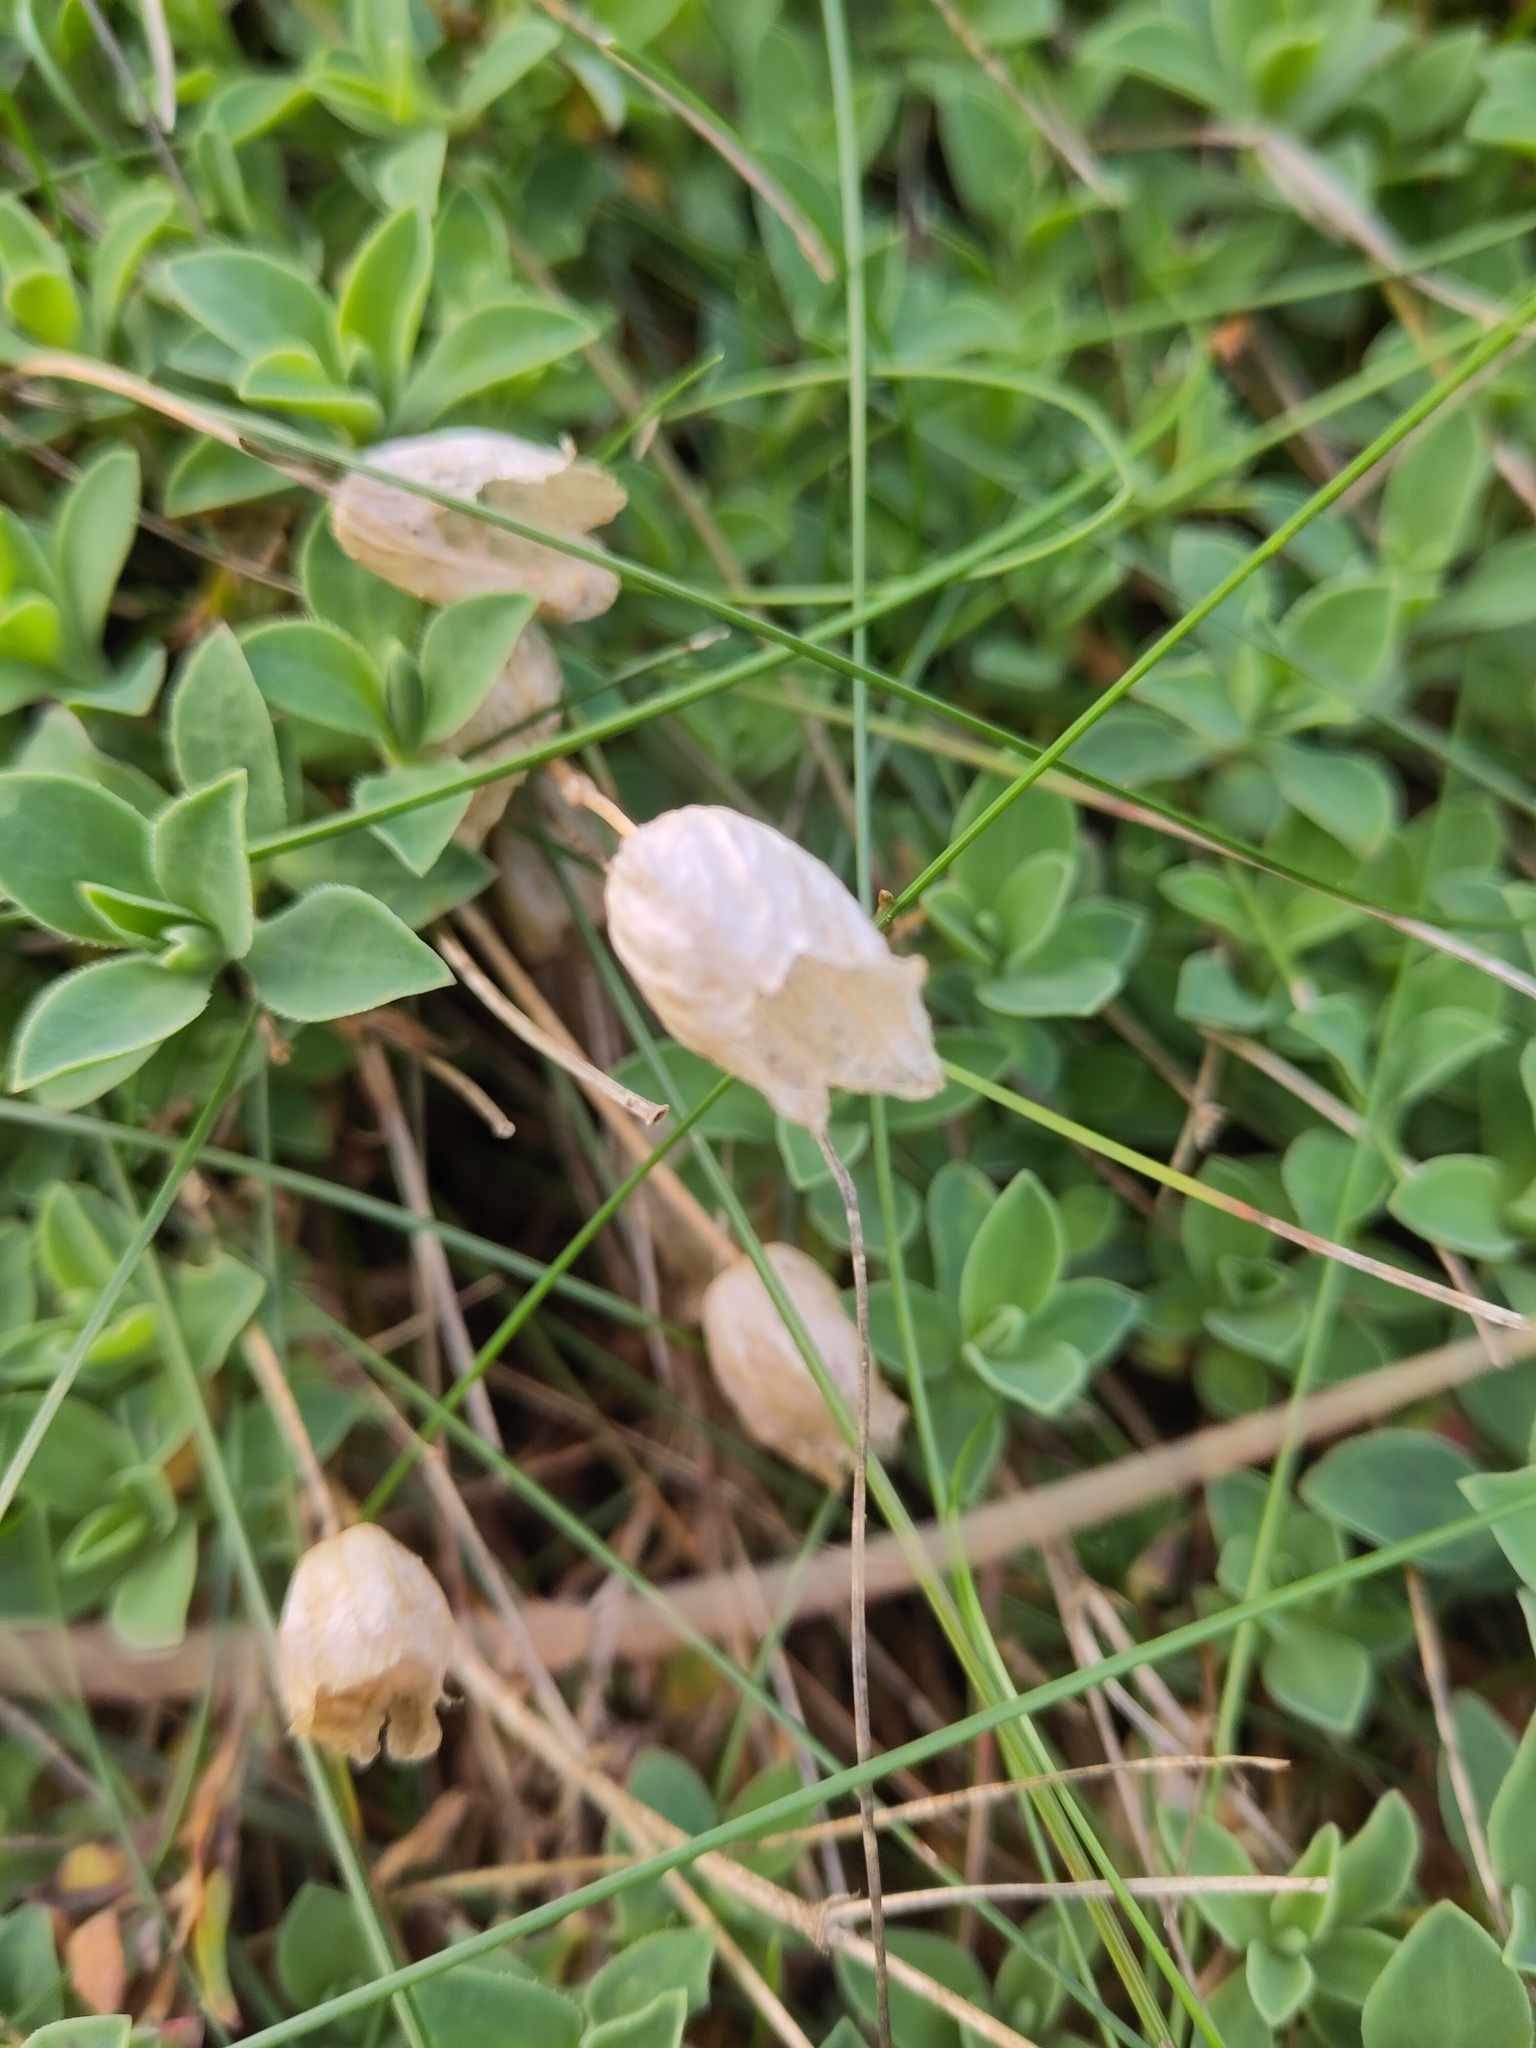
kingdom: Plantae
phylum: Tracheophyta
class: Magnoliopsida
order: Caryophyllales
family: Caryophyllaceae
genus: Silene
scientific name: Silene uniflora
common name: Sea campion
